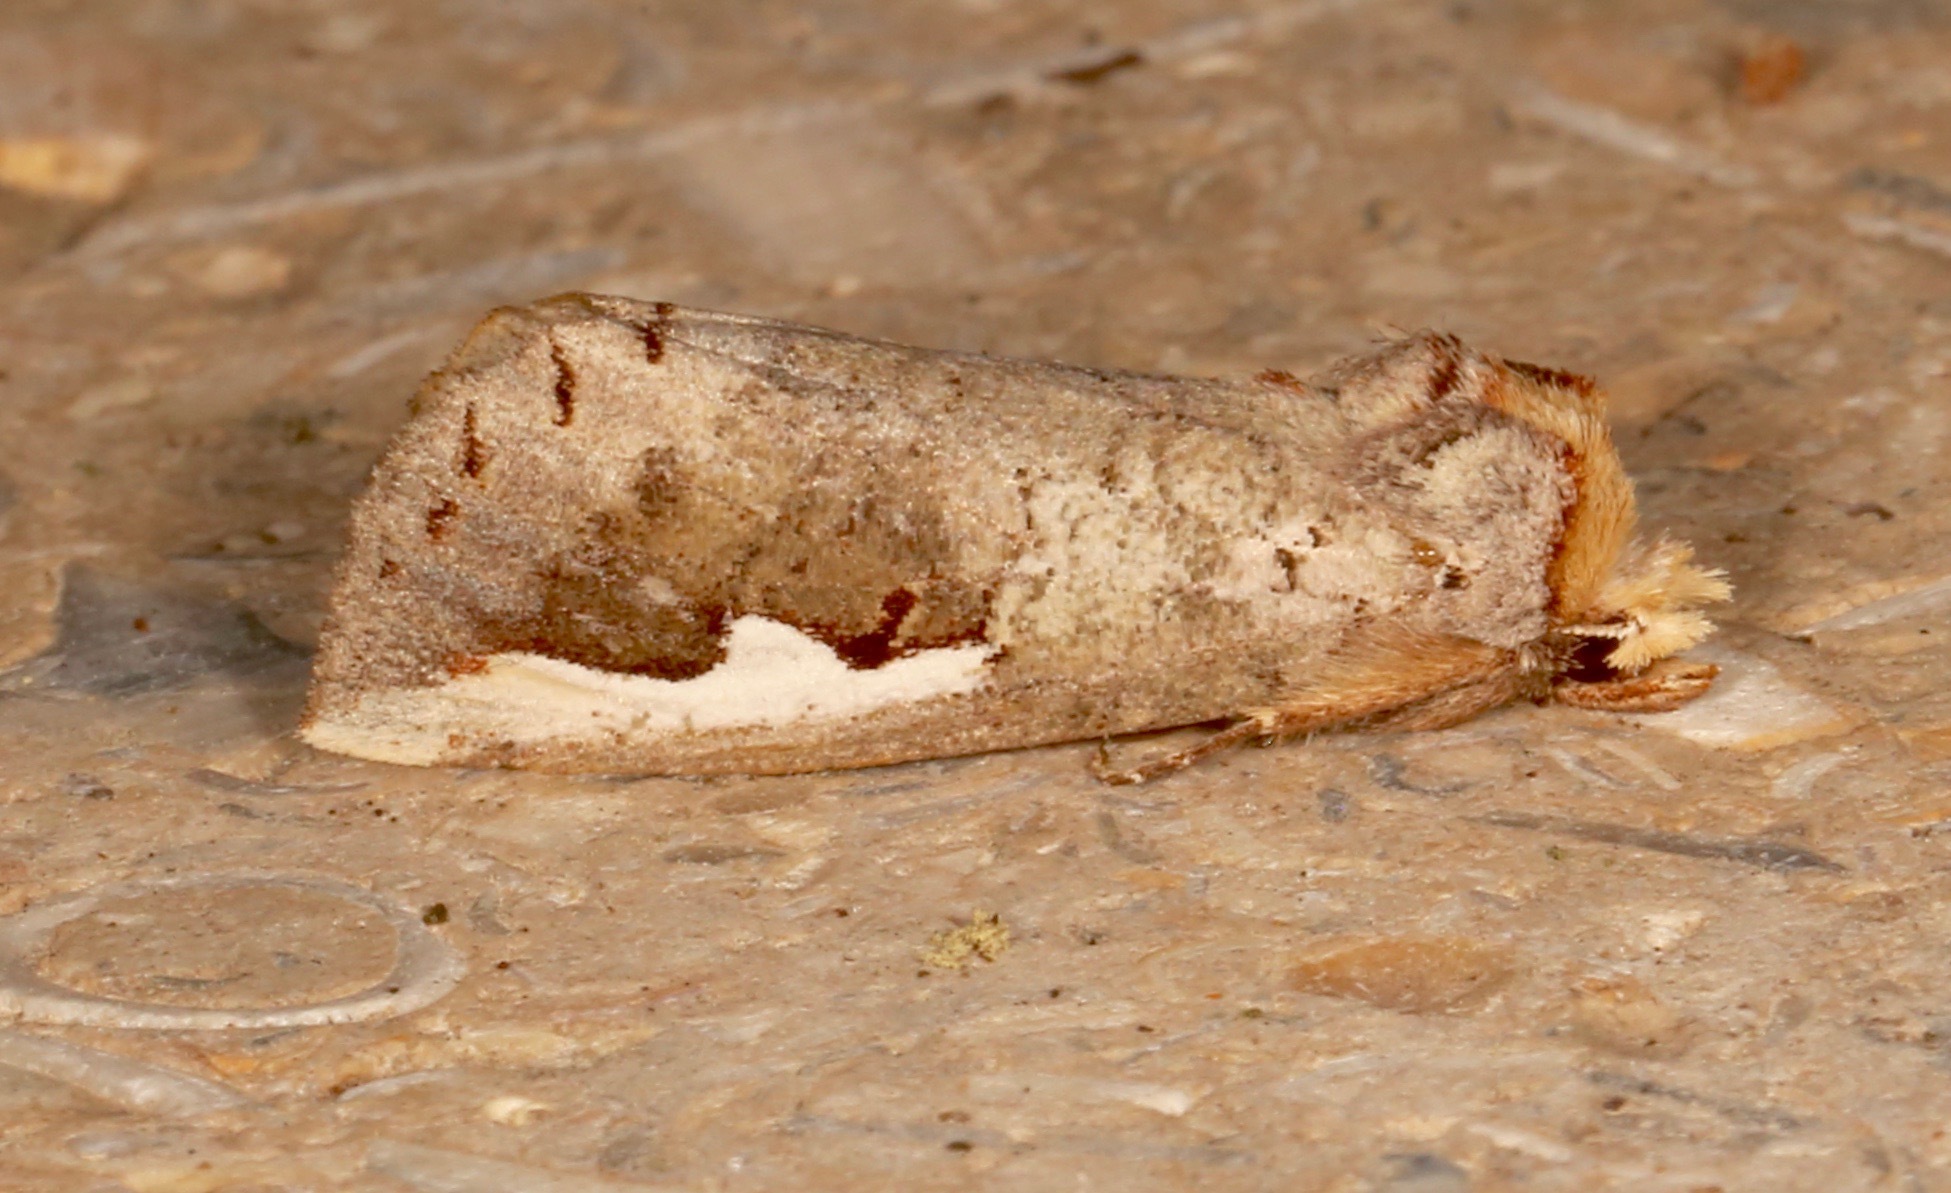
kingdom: Animalia
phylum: Arthropoda
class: Insecta
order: Lepidoptera
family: Notodontidae
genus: Symmerista
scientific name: Symmerista albifrons
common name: White-headed prominent
